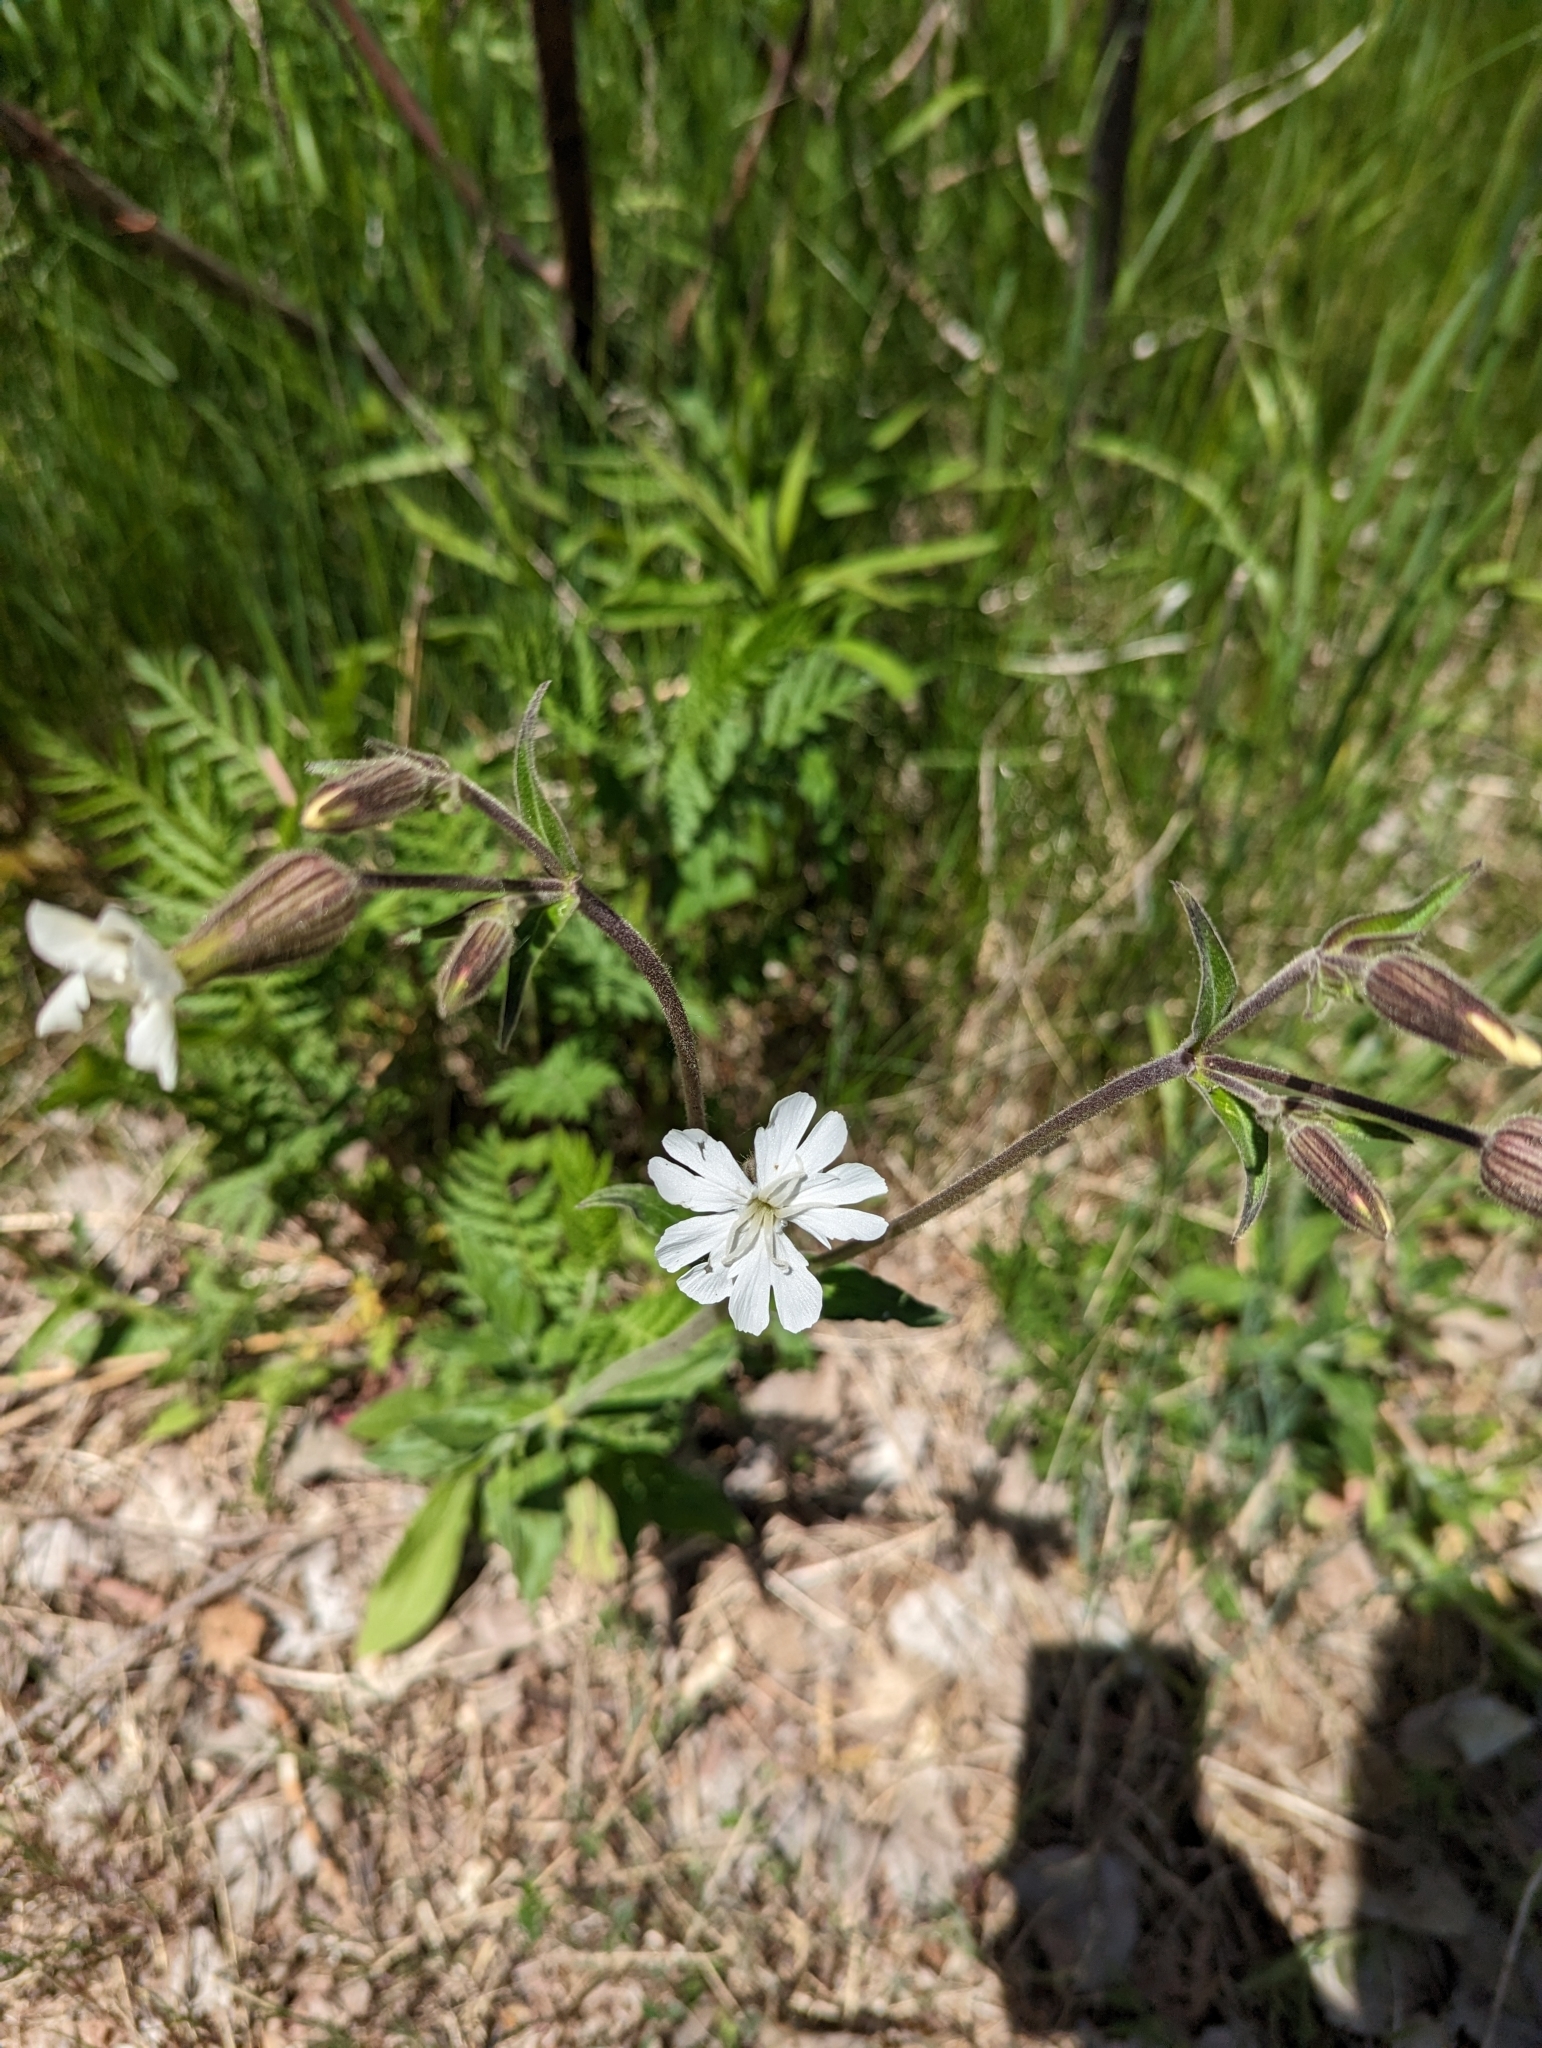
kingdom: Plantae
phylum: Tracheophyta
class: Magnoliopsida
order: Caryophyllales
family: Caryophyllaceae
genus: Silene
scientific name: Silene latifolia
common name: White campion
